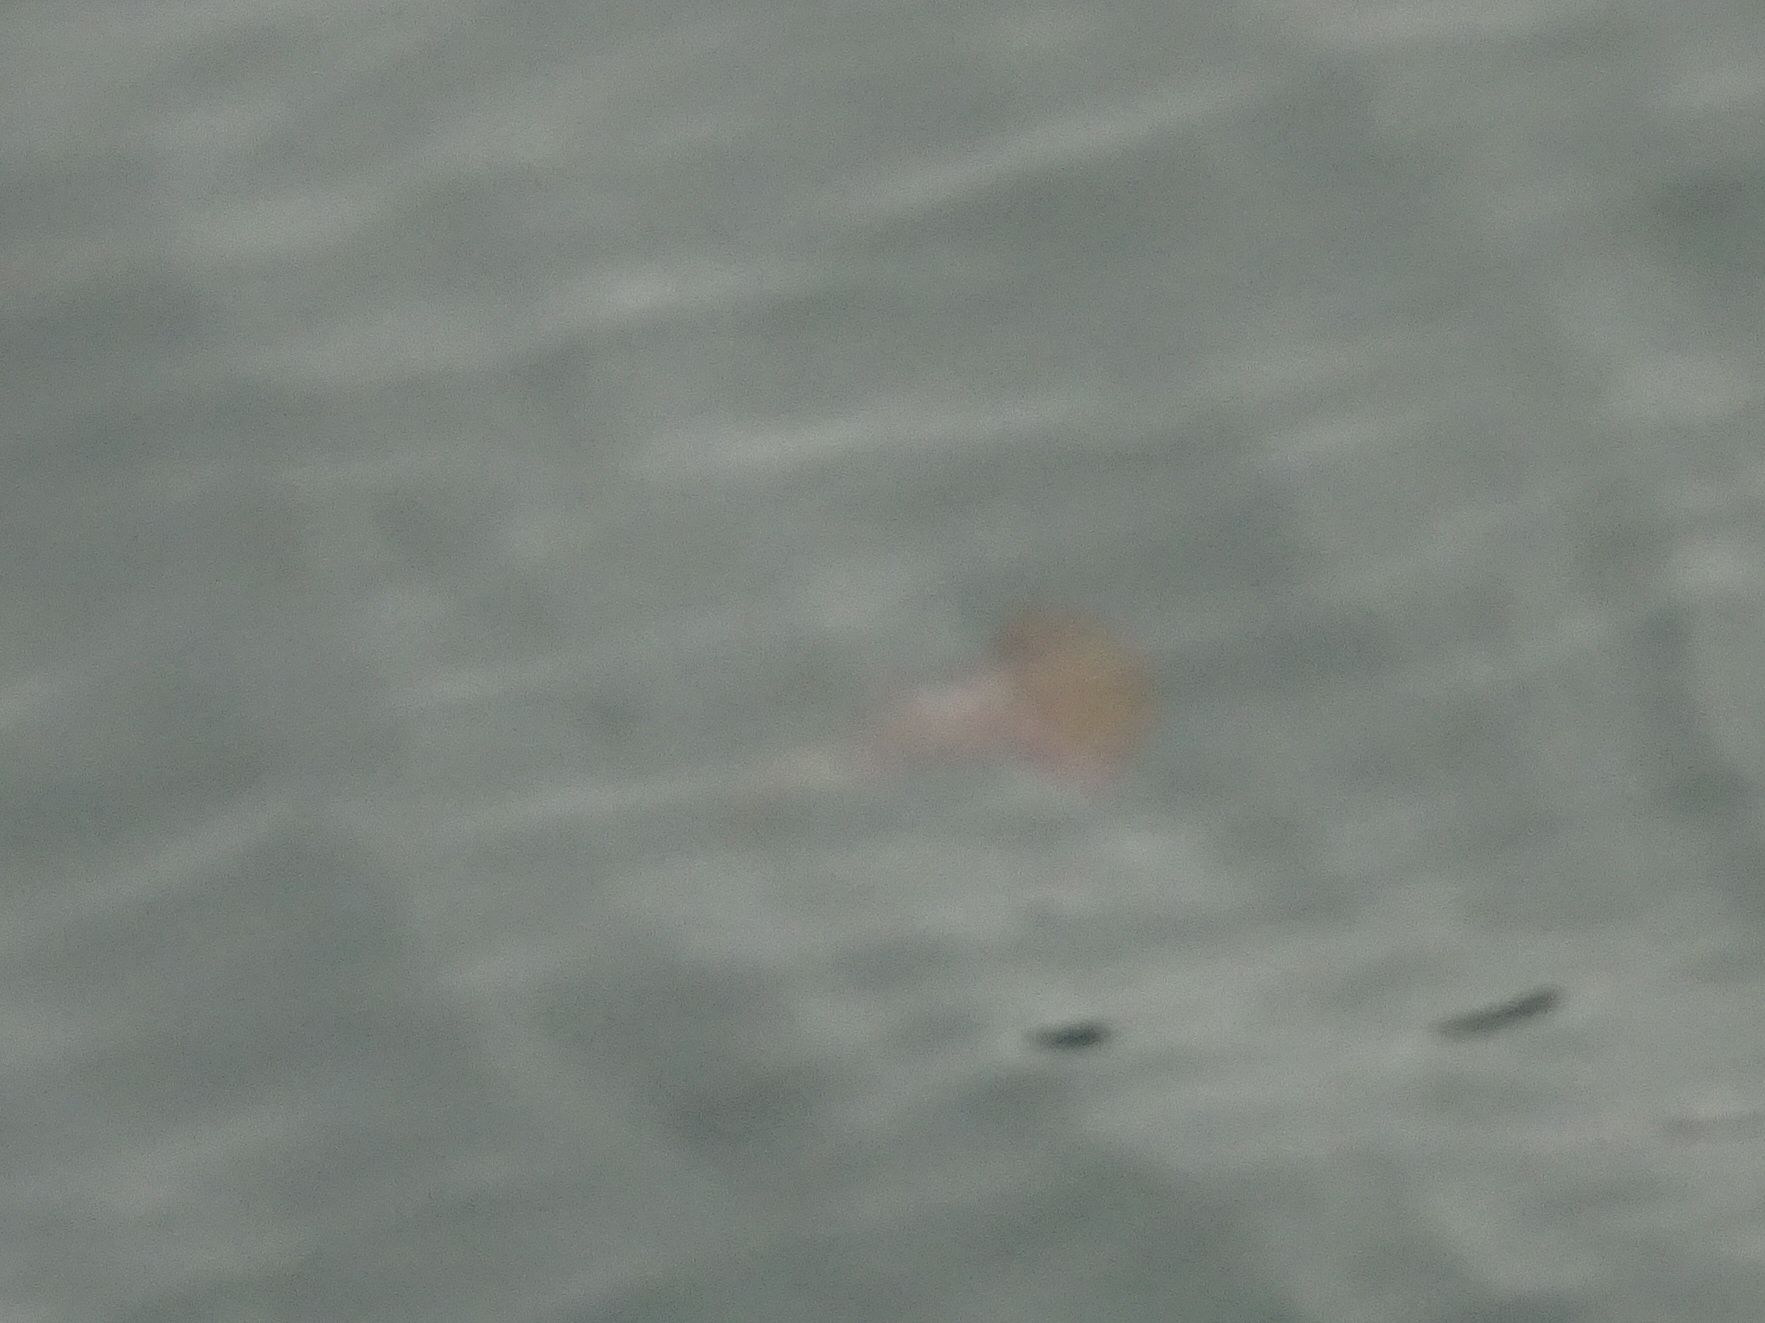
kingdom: Animalia
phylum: Cnidaria
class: Scyphozoa
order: Semaeostomeae
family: Pelagiidae
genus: Chrysaora
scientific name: Chrysaora fuscescens
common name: Sea nettle
